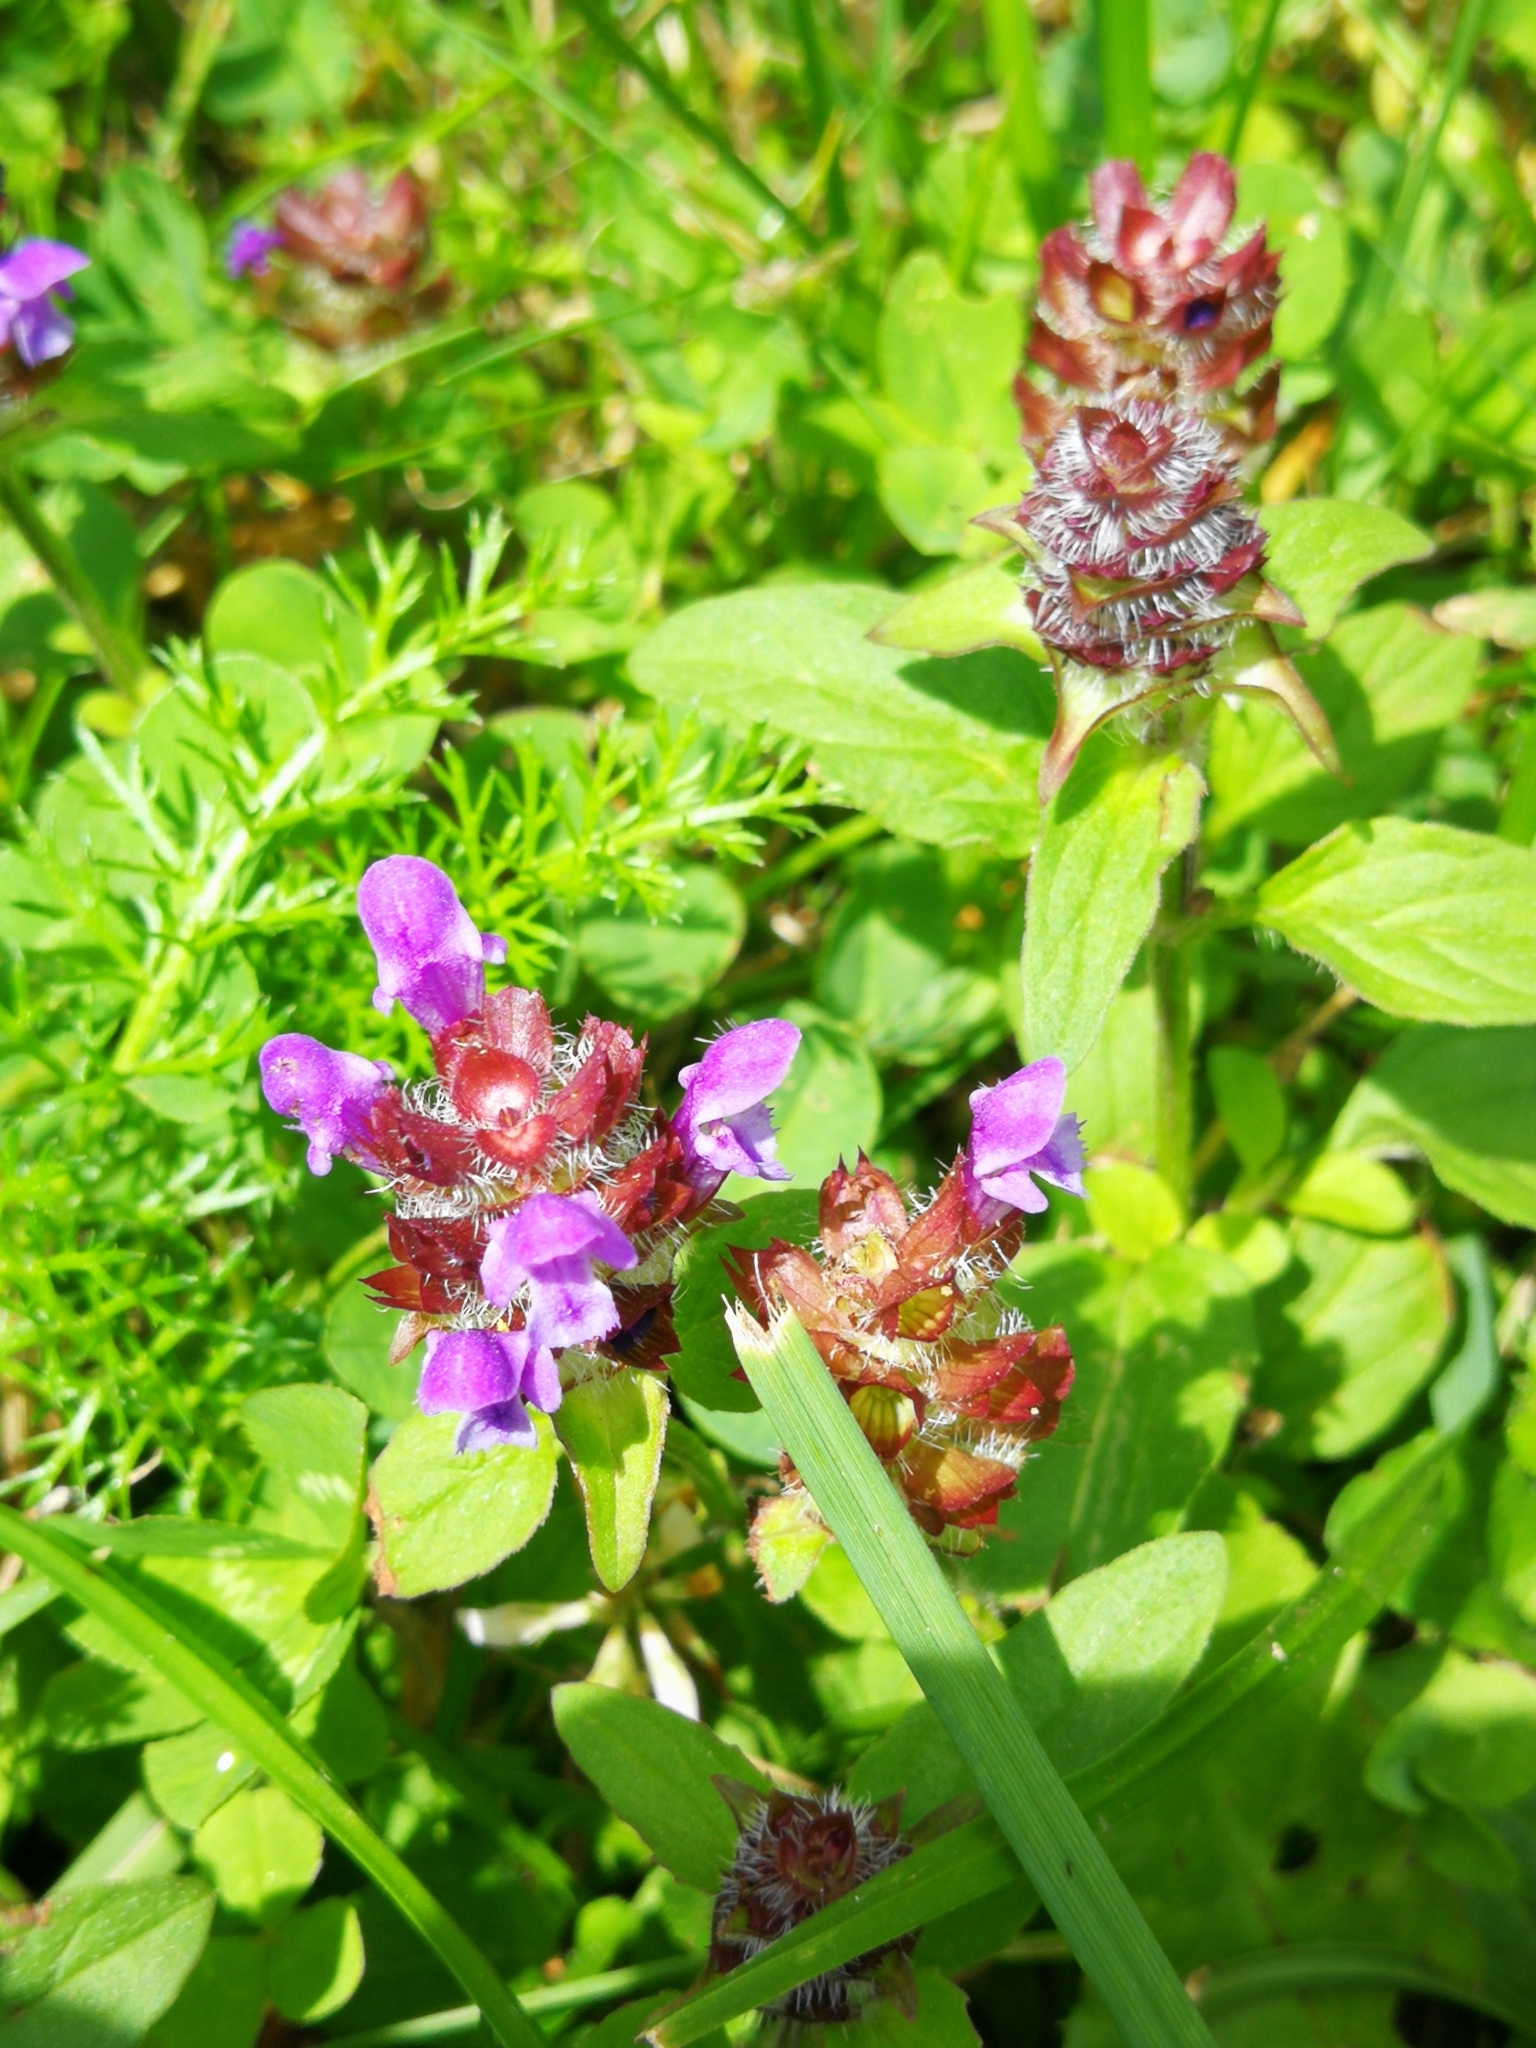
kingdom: Plantae
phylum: Tracheophyta
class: Magnoliopsida
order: Lamiales
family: Lamiaceae
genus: Prunella
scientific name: Prunella vulgaris
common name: Heal-all
